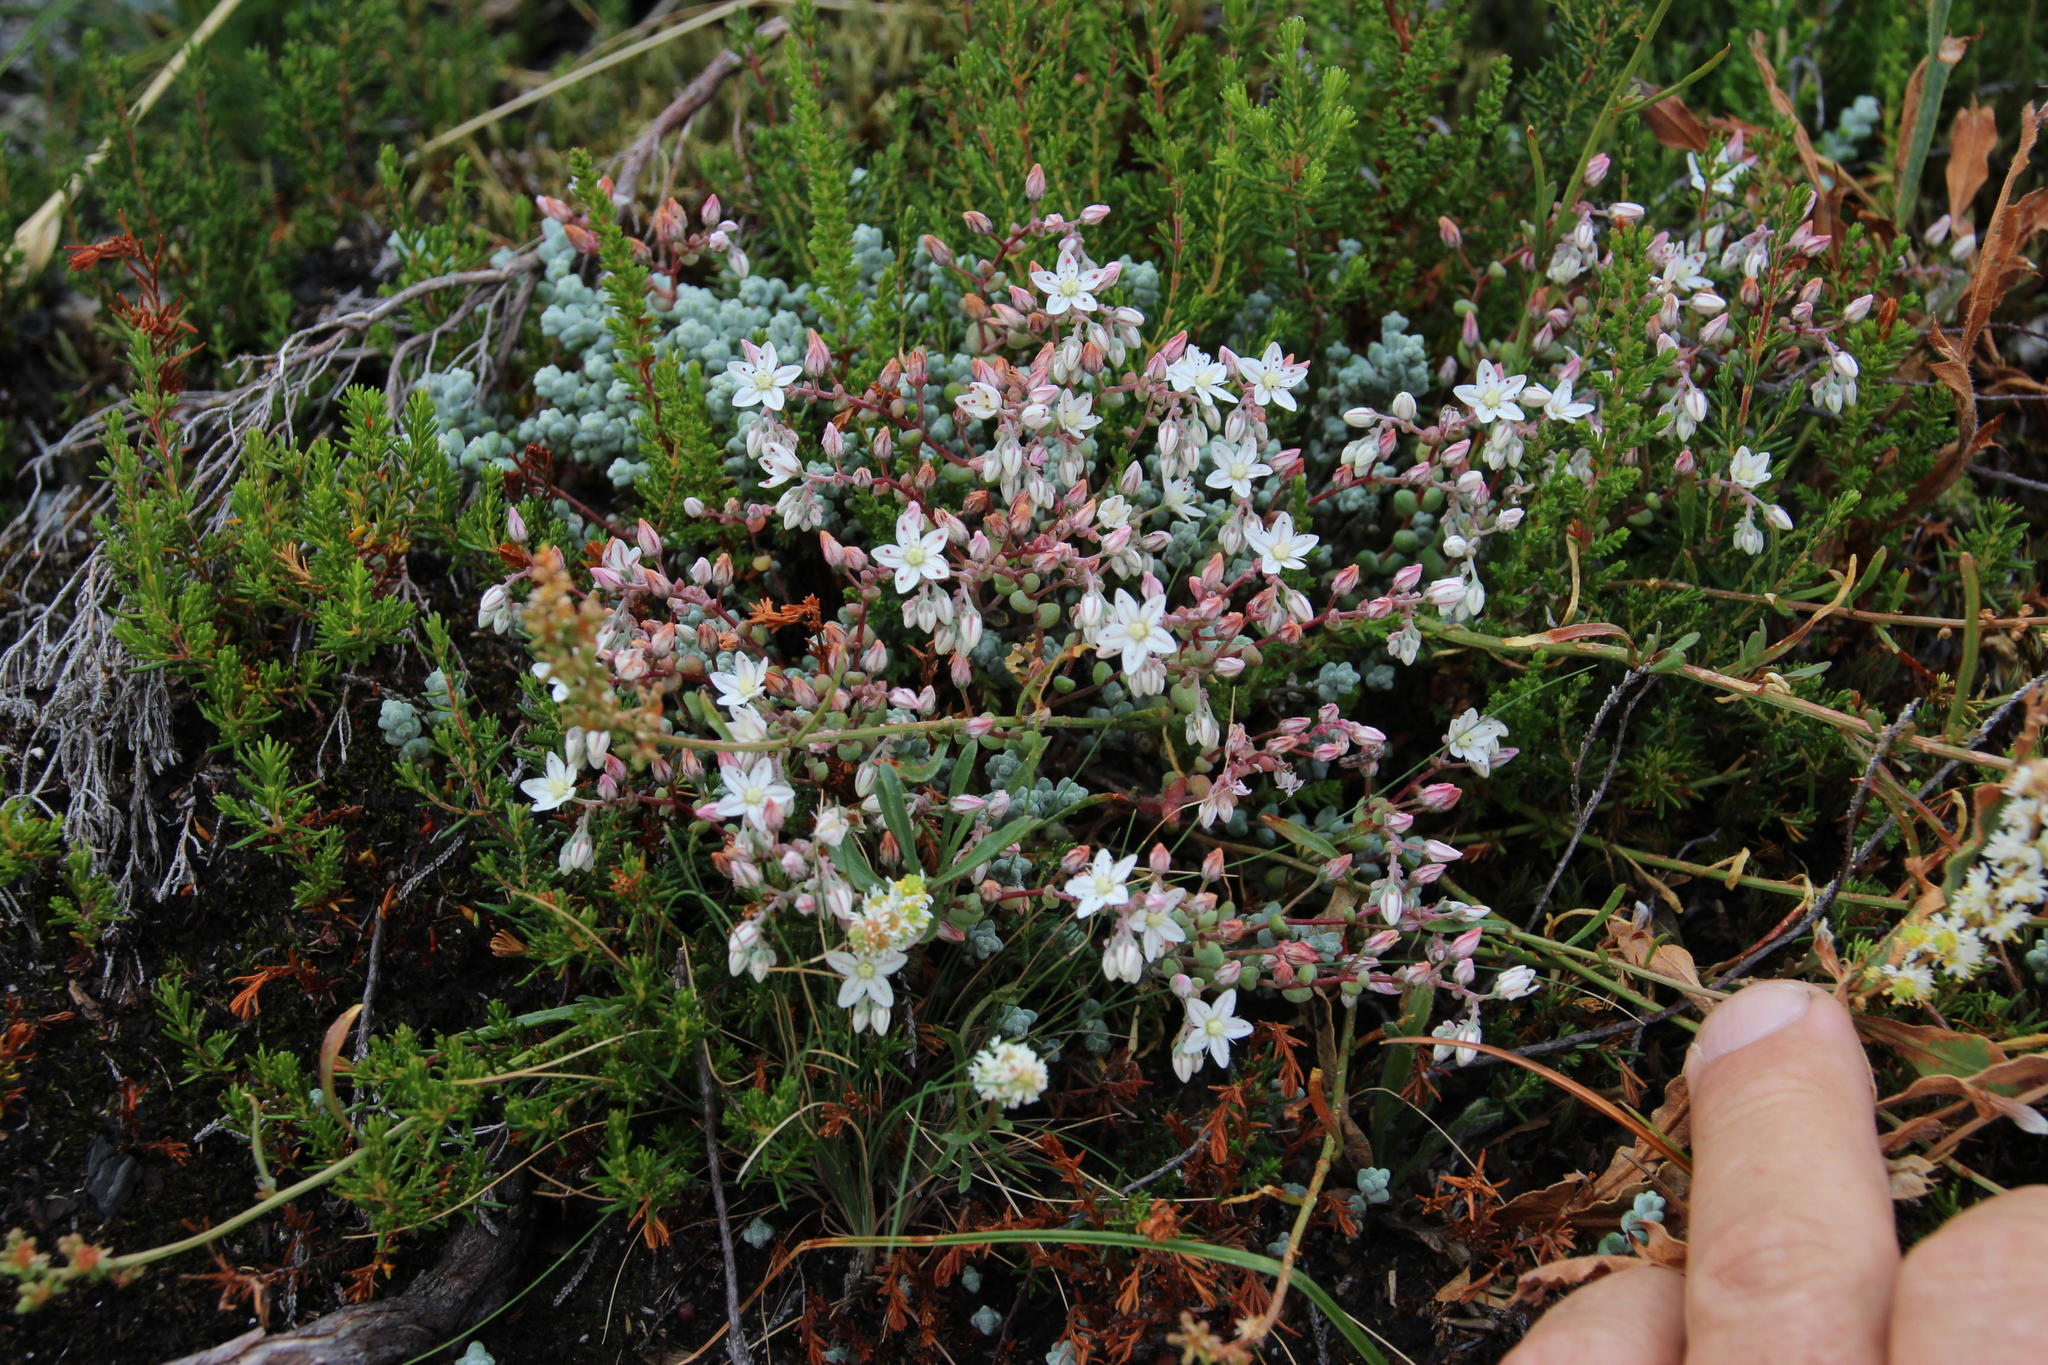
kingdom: Plantae
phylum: Tracheophyta
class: Magnoliopsida
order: Saxifragales
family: Crassulaceae
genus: Sedum
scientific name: Sedum brevifolium
